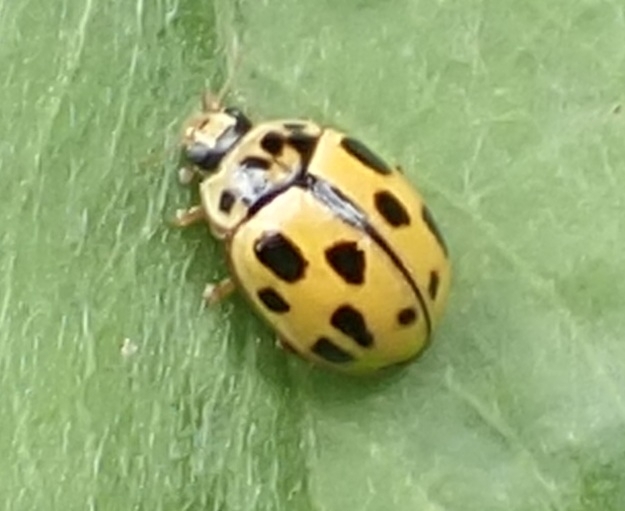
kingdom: Animalia
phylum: Arthropoda
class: Insecta
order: Coleoptera
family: Coccinellidae
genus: Propylaea
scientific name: Propylaea quatuordecimpunctata
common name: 14-spotted ladybird beetle
